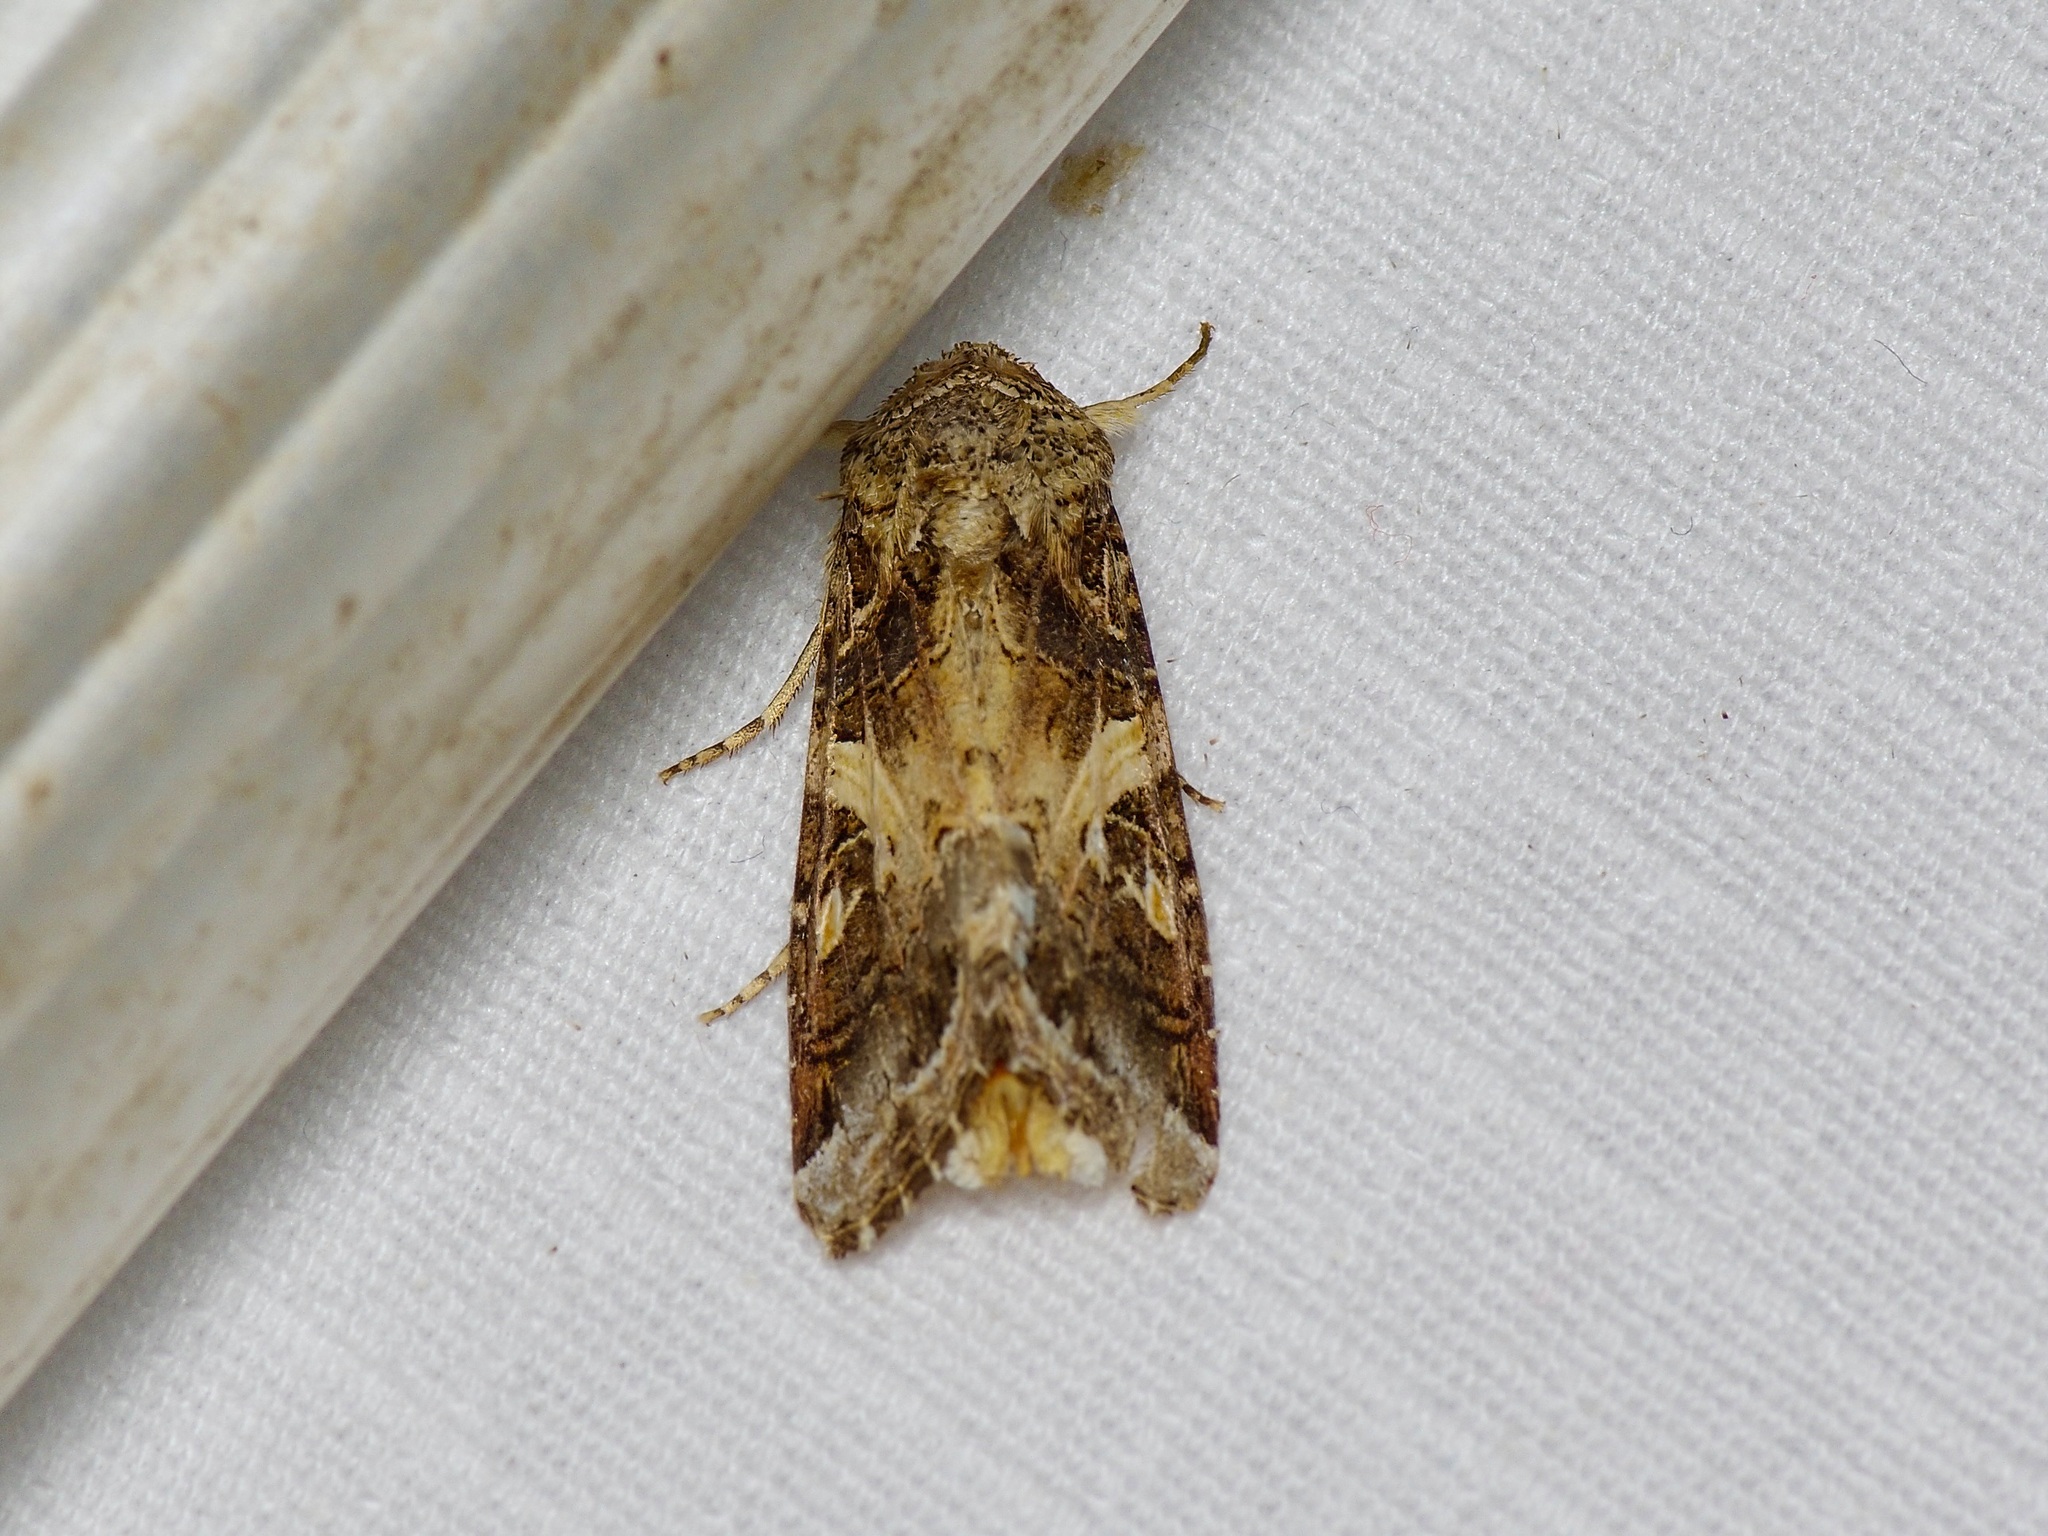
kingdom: Animalia
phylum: Arthropoda
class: Insecta
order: Lepidoptera
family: Noctuidae
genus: Spodoptera
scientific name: Spodoptera ornithogalli
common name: Yellow-striped armyworm
